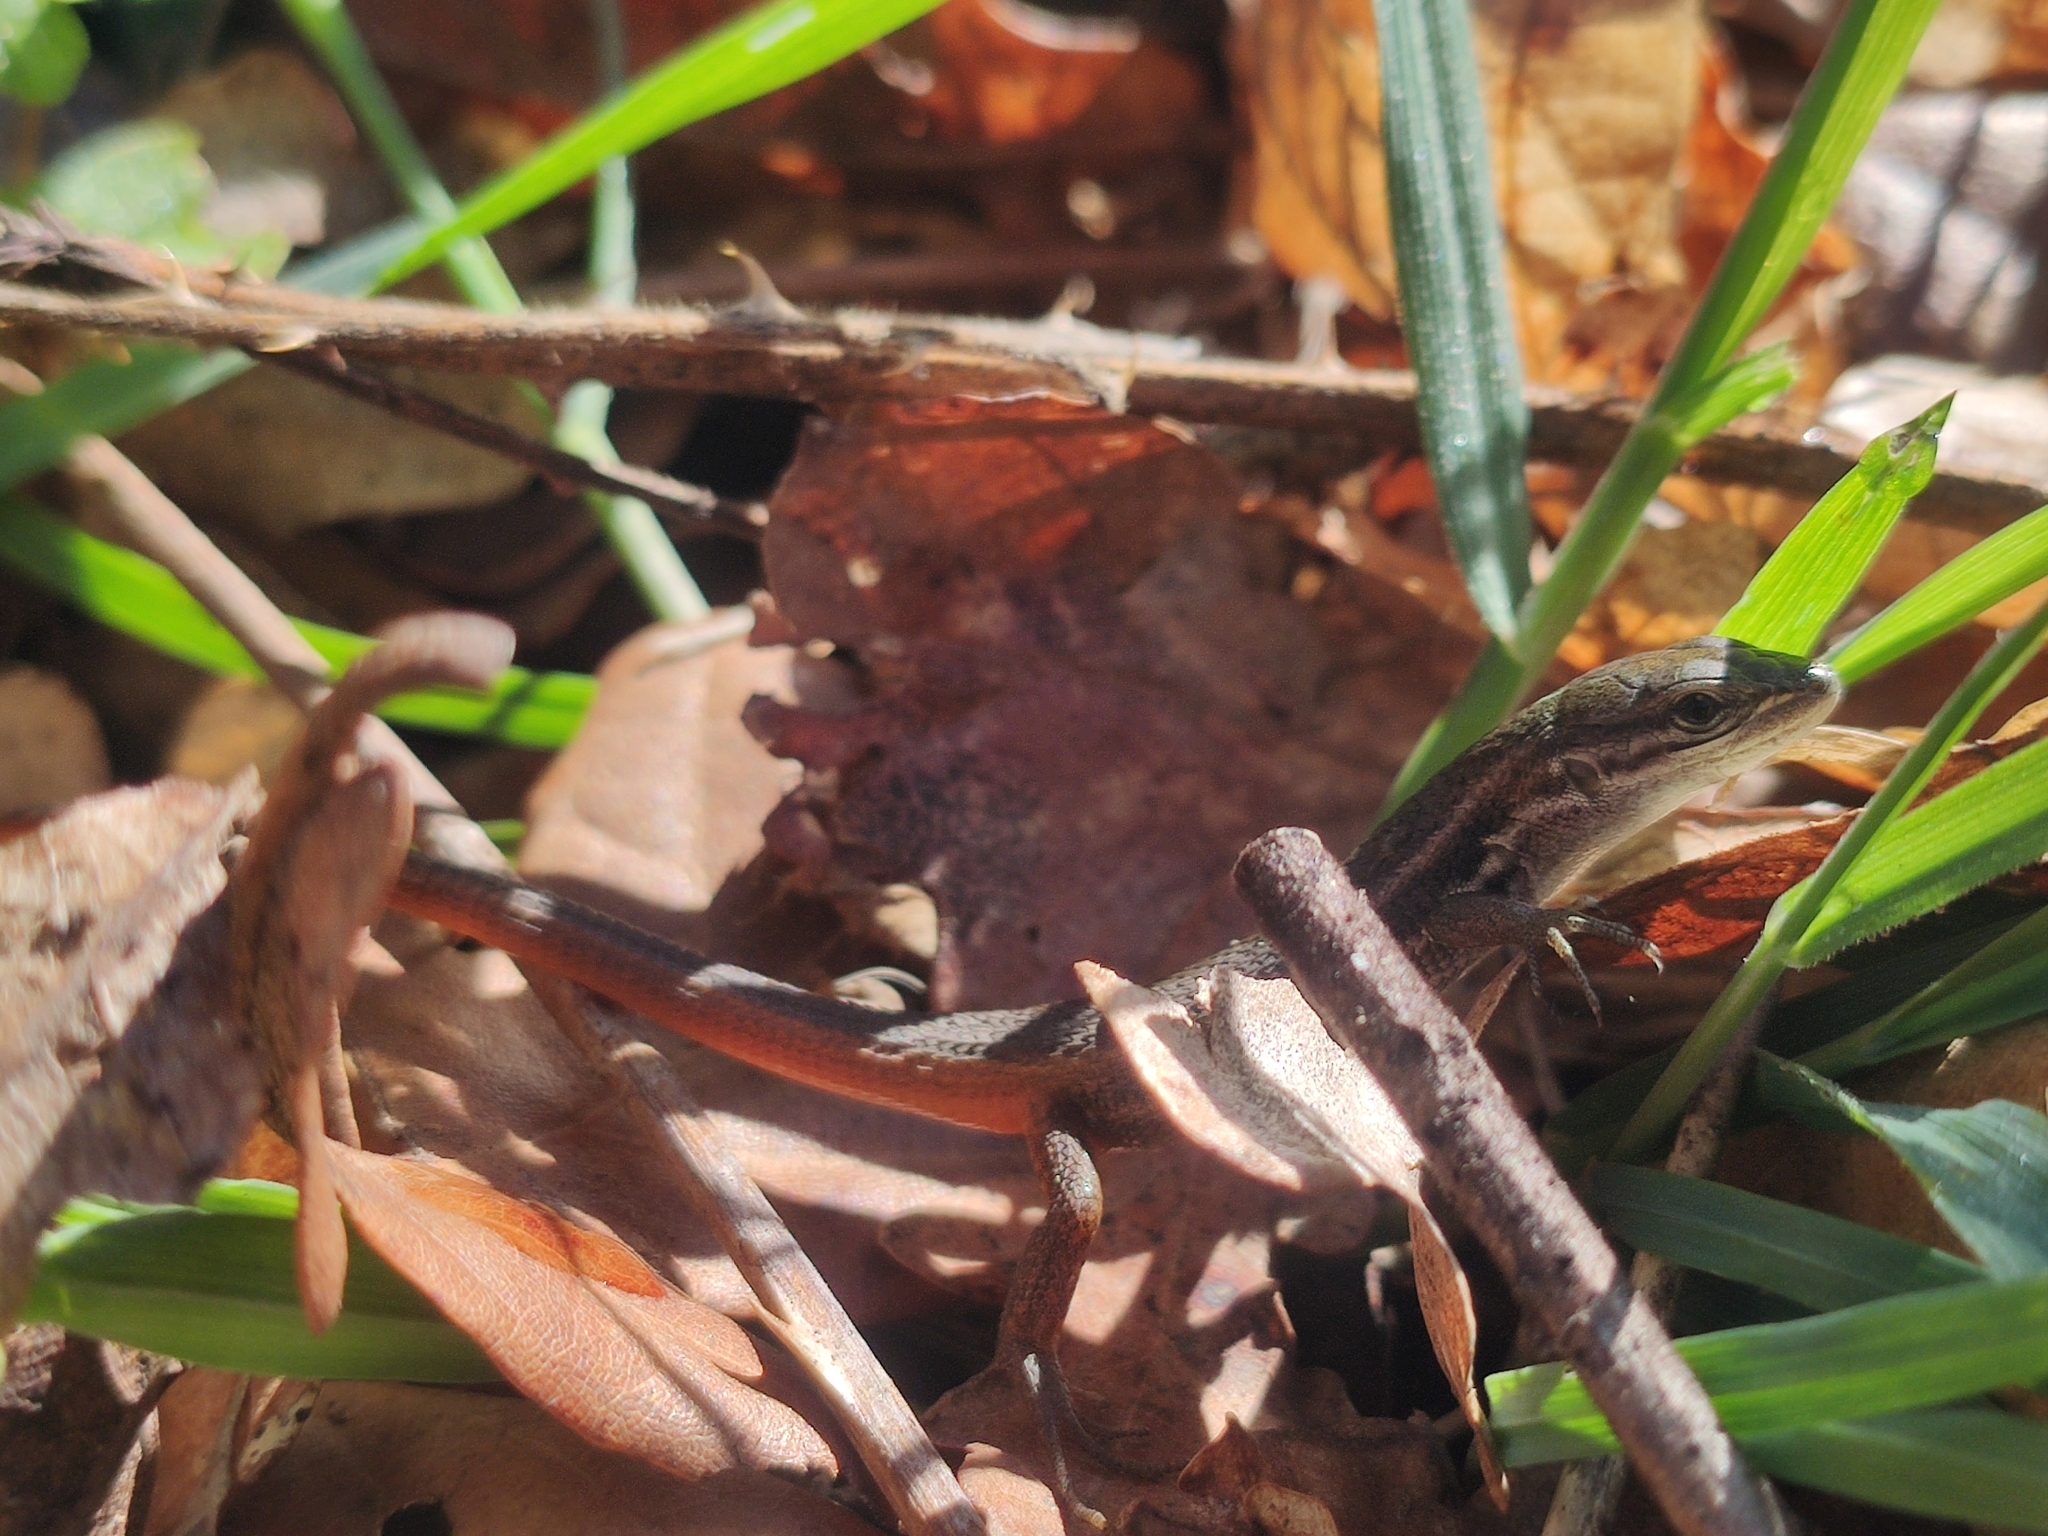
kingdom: Animalia
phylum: Chordata
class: Squamata
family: Lacertidae
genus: Psammodromus
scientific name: Psammodromus algirus
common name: Algerian psammodromus
